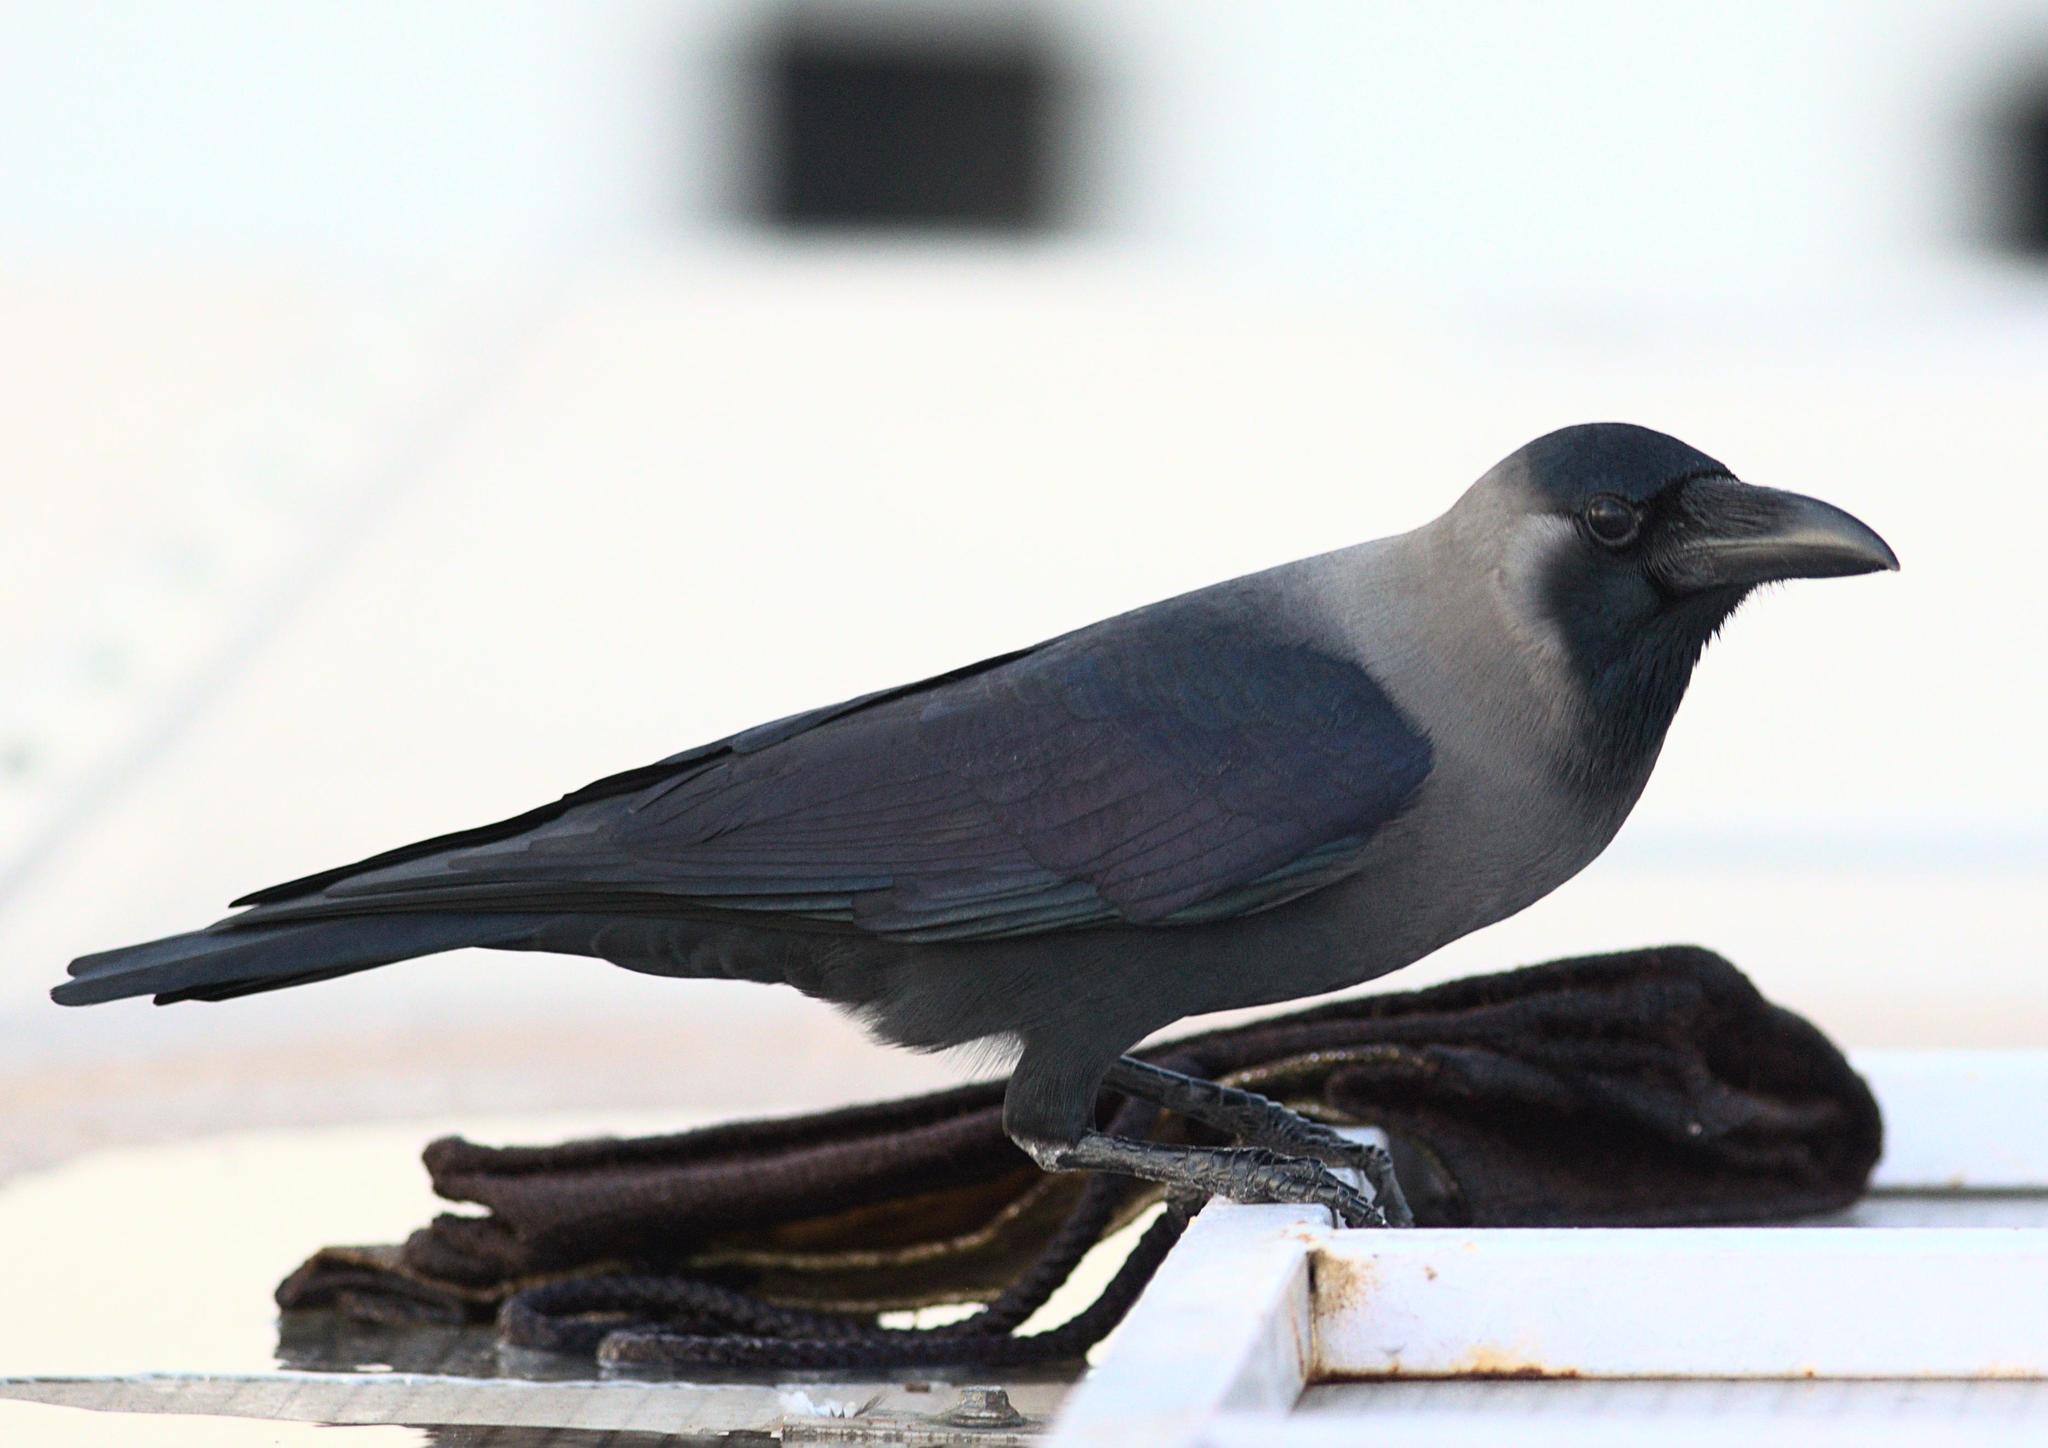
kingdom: Animalia
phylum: Chordata
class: Aves
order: Passeriformes
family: Corvidae
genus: Corvus
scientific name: Corvus splendens
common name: House crow
